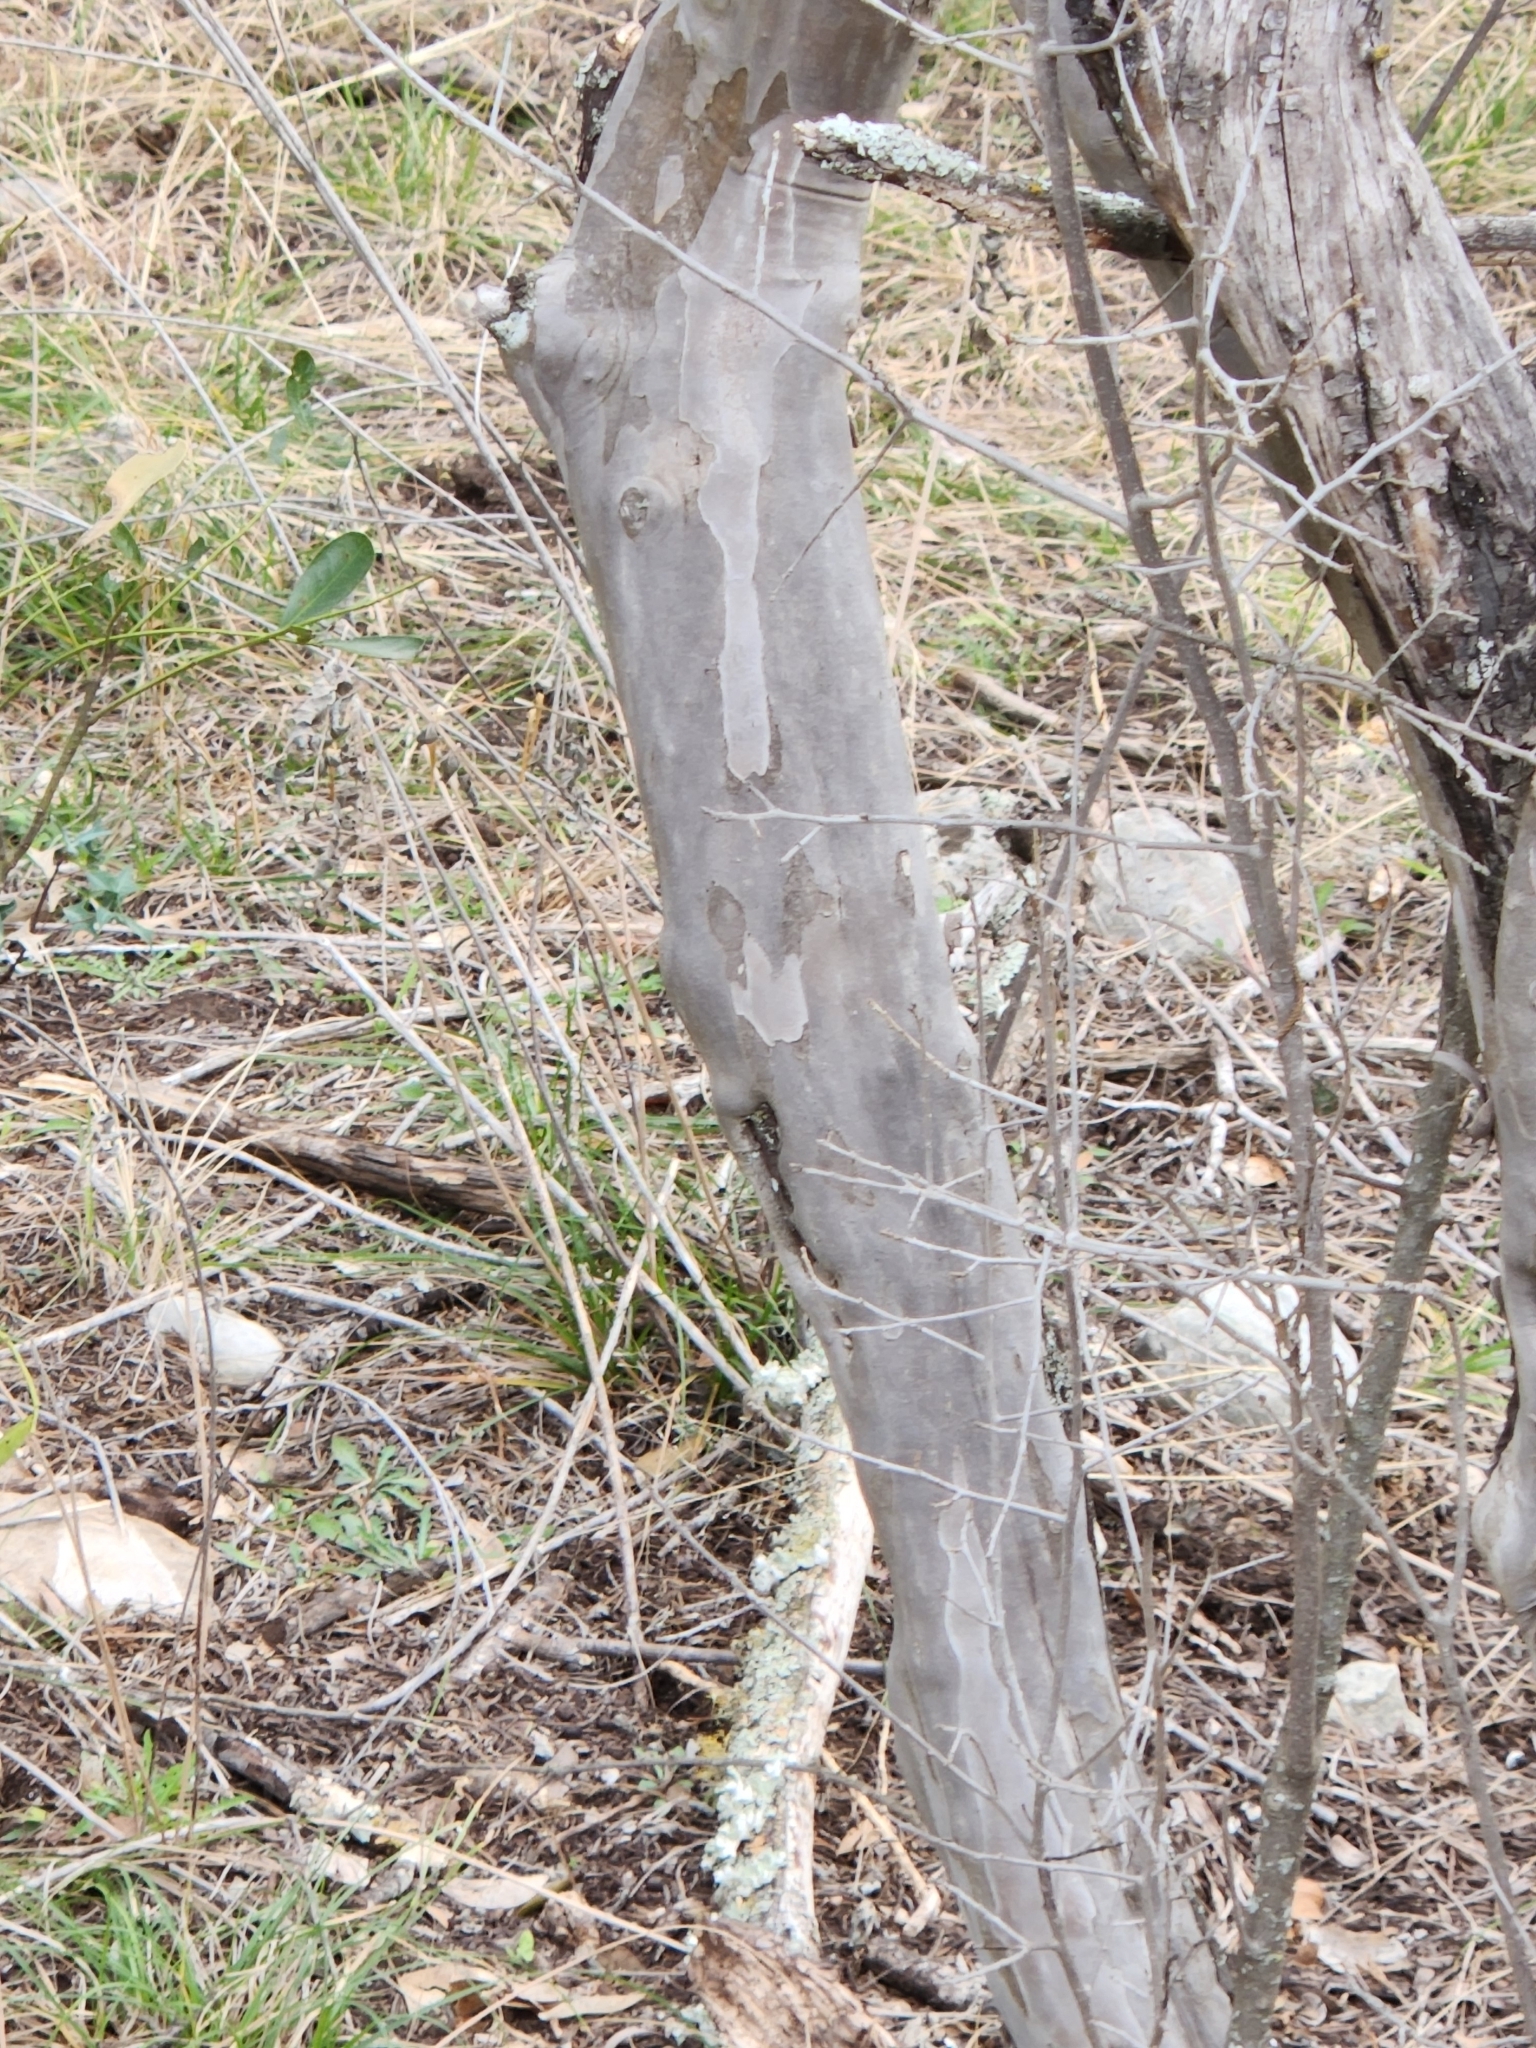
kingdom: Plantae
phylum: Tracheophyta
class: Magnoliopsida
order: Ericales
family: Ebenaceae
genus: Diospyros
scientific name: Diospyros texana
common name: Texas persimmon
